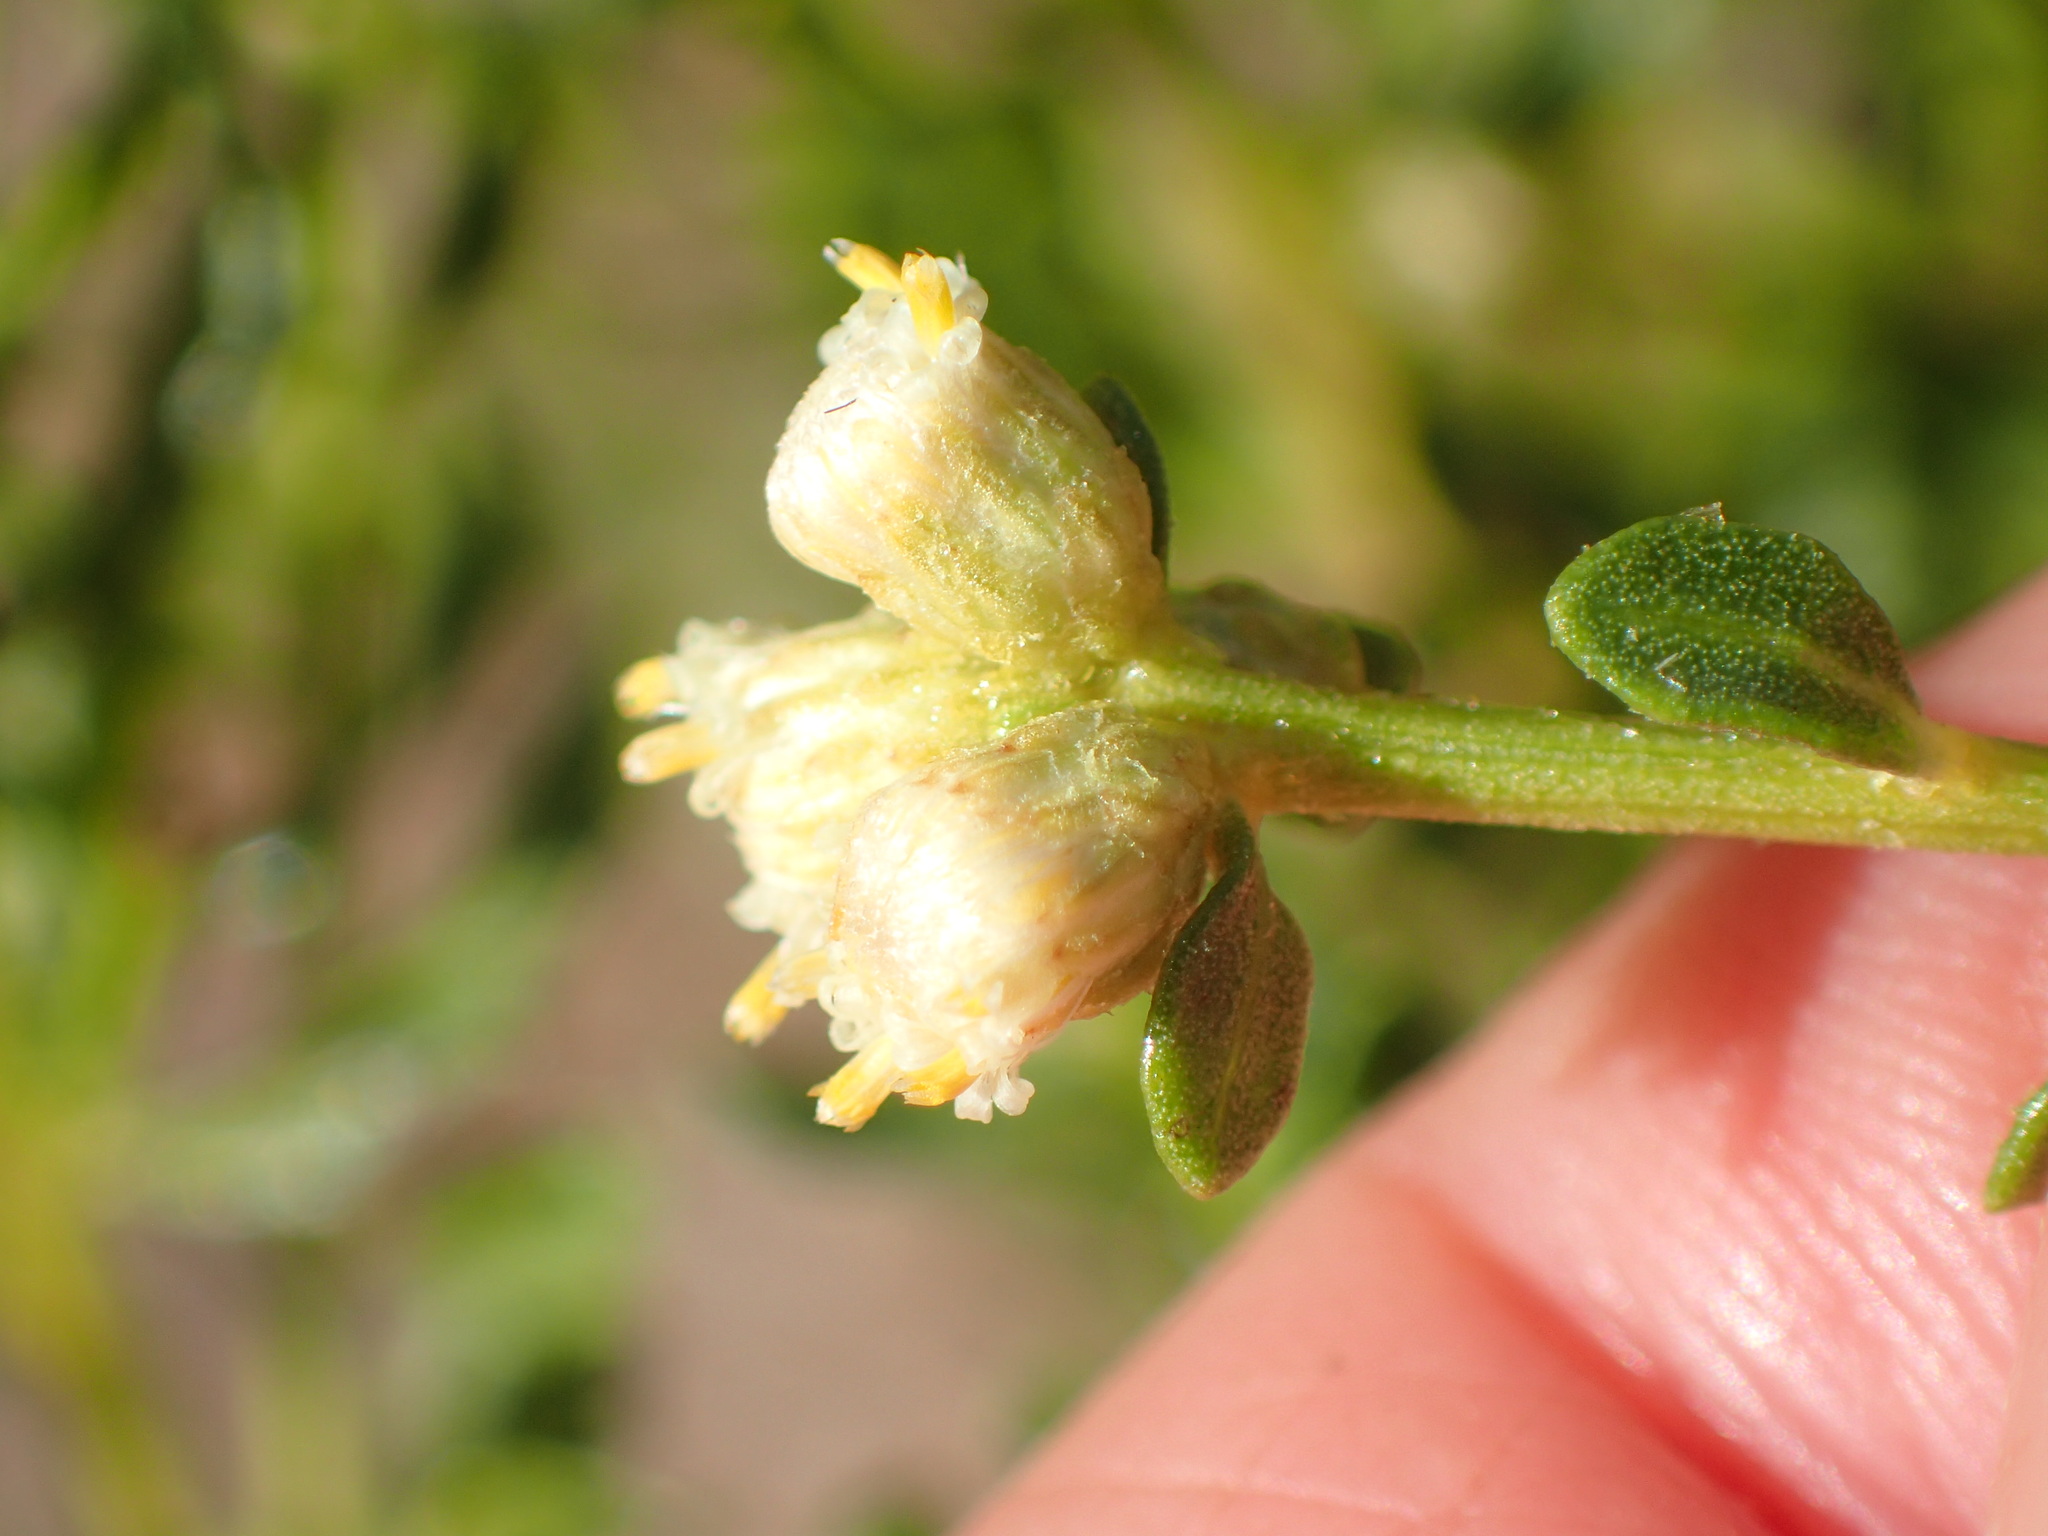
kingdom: Plantae
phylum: Tracheophyta
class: Magnoliopsida
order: Asterales
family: Asteraceae
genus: Baccharis
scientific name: Baccharis pilularis
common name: Coyotebrush
